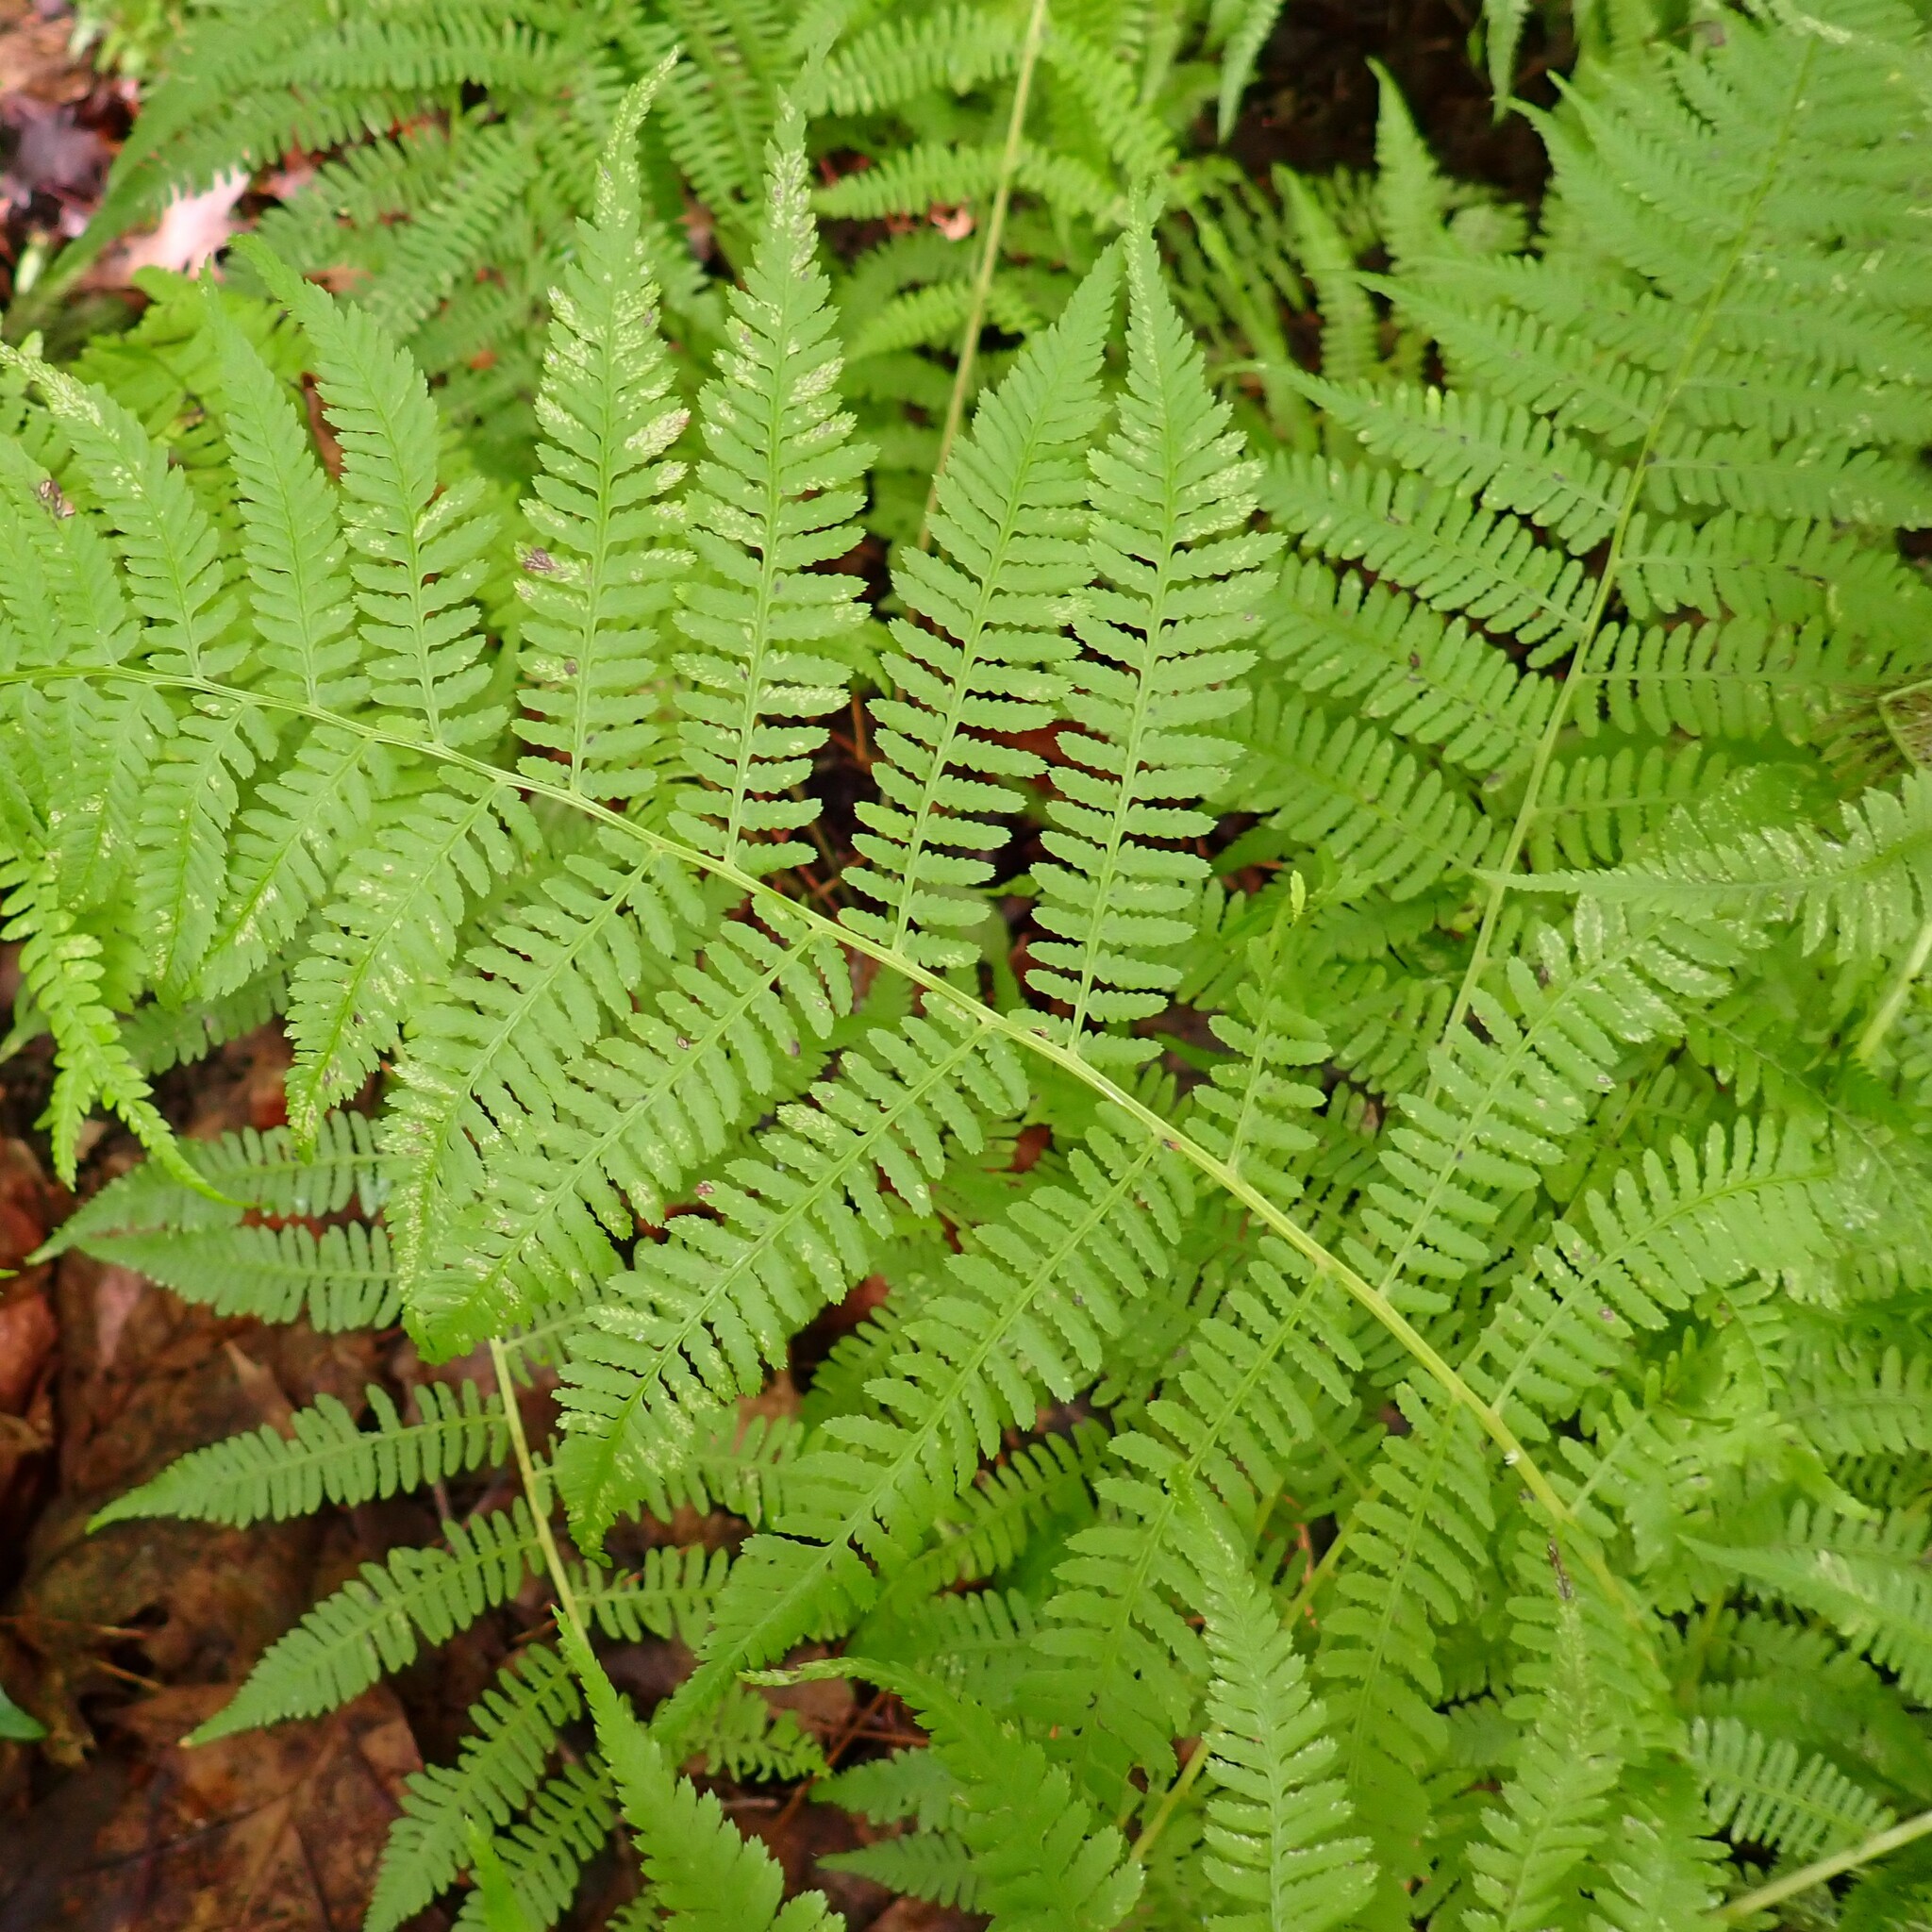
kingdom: Plantae
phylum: Tracheophyta
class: Polypodiopsida
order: Polypodiales
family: Athyriaceae
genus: Athyrium
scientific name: Athyrium angustum
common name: Northern lady fern
